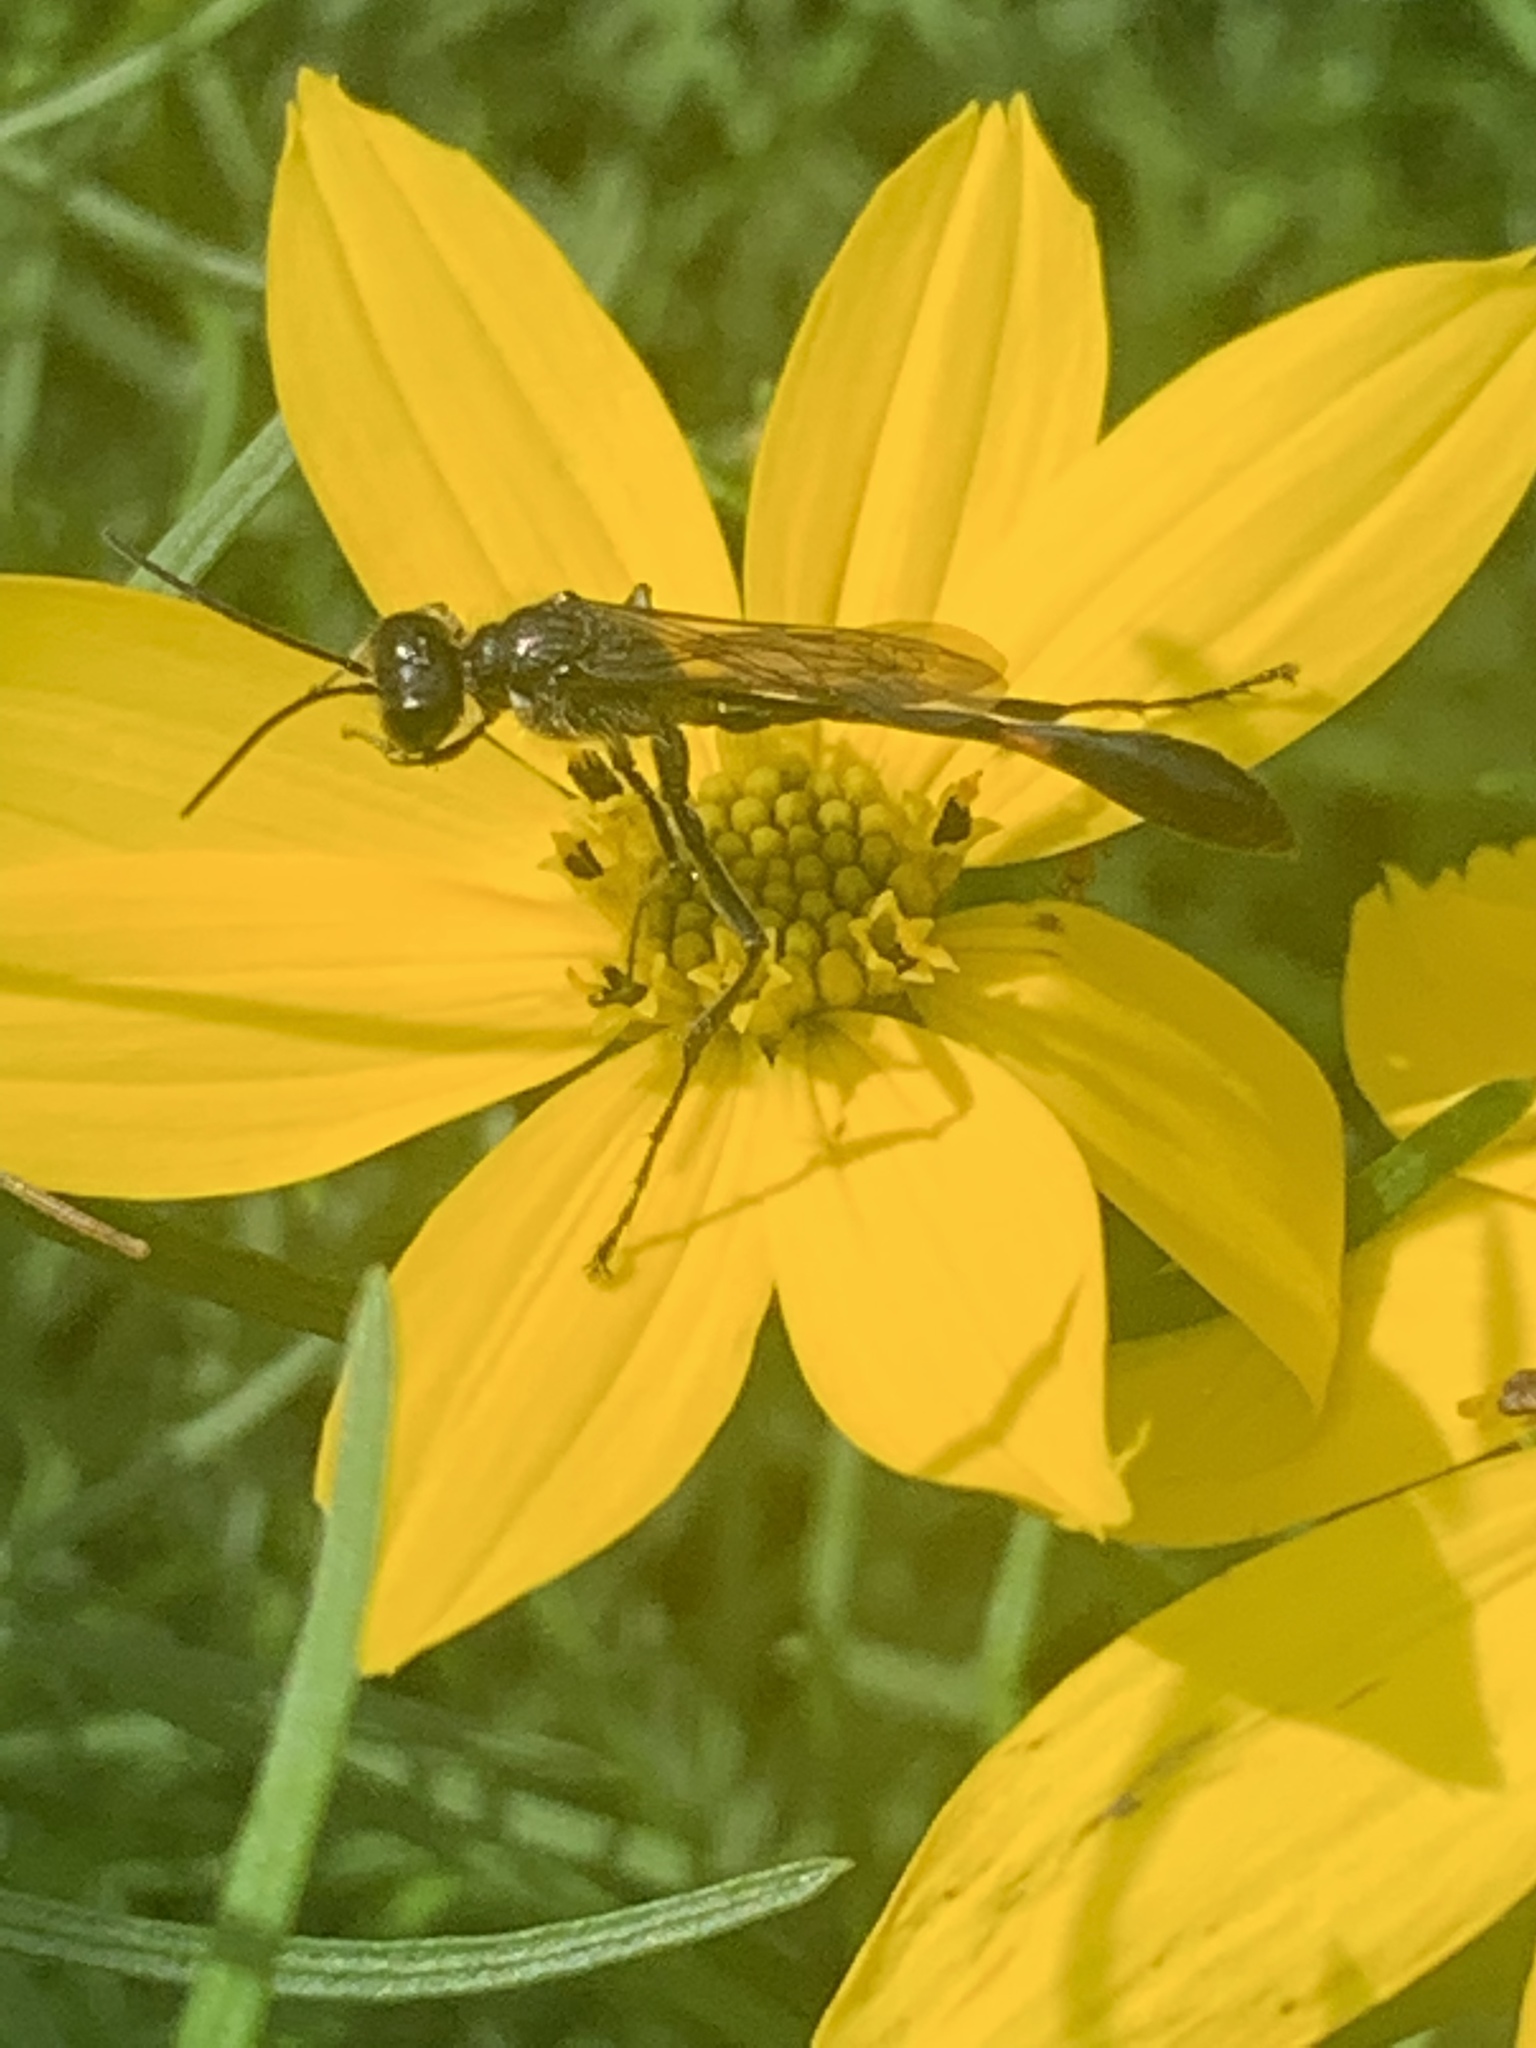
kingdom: Animalia
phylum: Arthropoda
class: Insecta
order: Hymenoptera
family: Sphecidae
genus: Ammophila
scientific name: Ammophila
